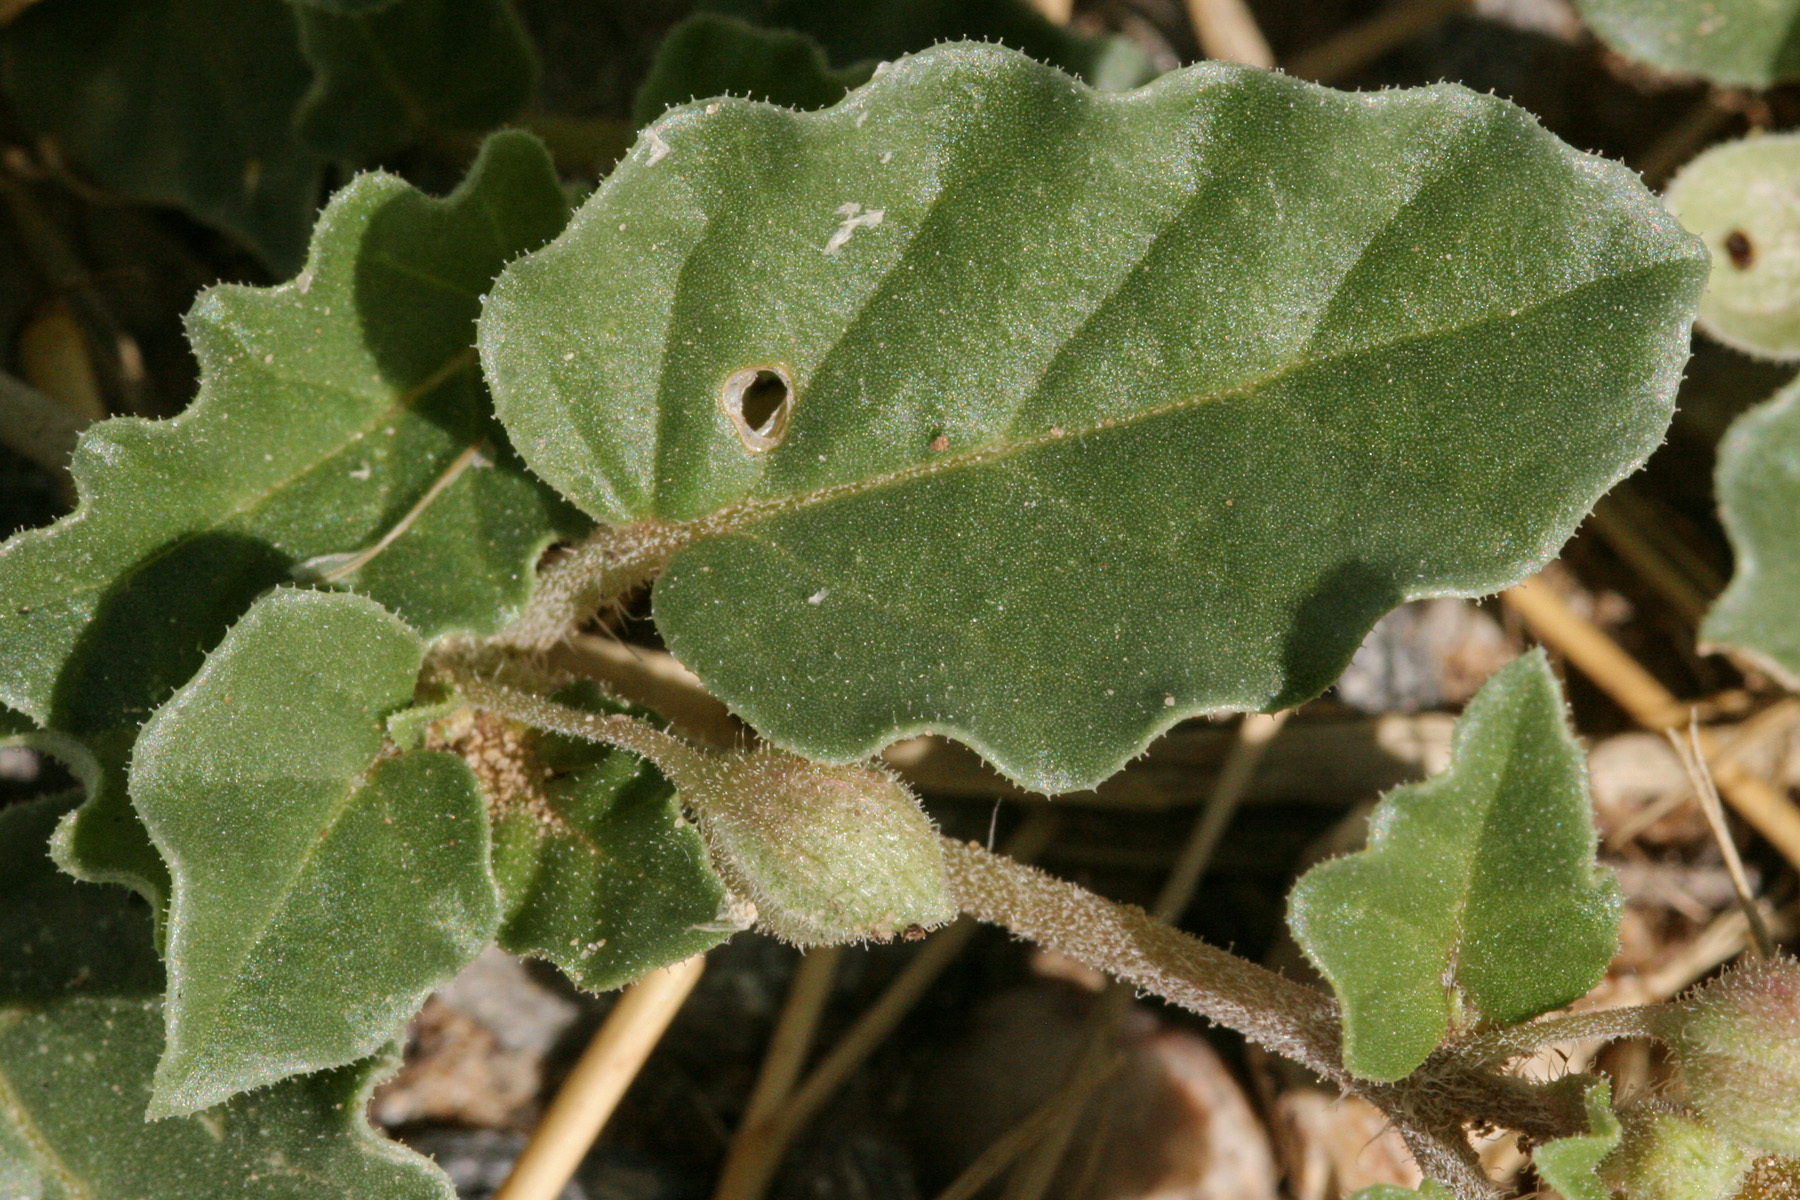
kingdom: Plantae
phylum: Tracheophyta
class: Magnoliopsida
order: Caryophyllales
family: Nyctaginaceae
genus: Allionia
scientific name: Allionia incarnata
